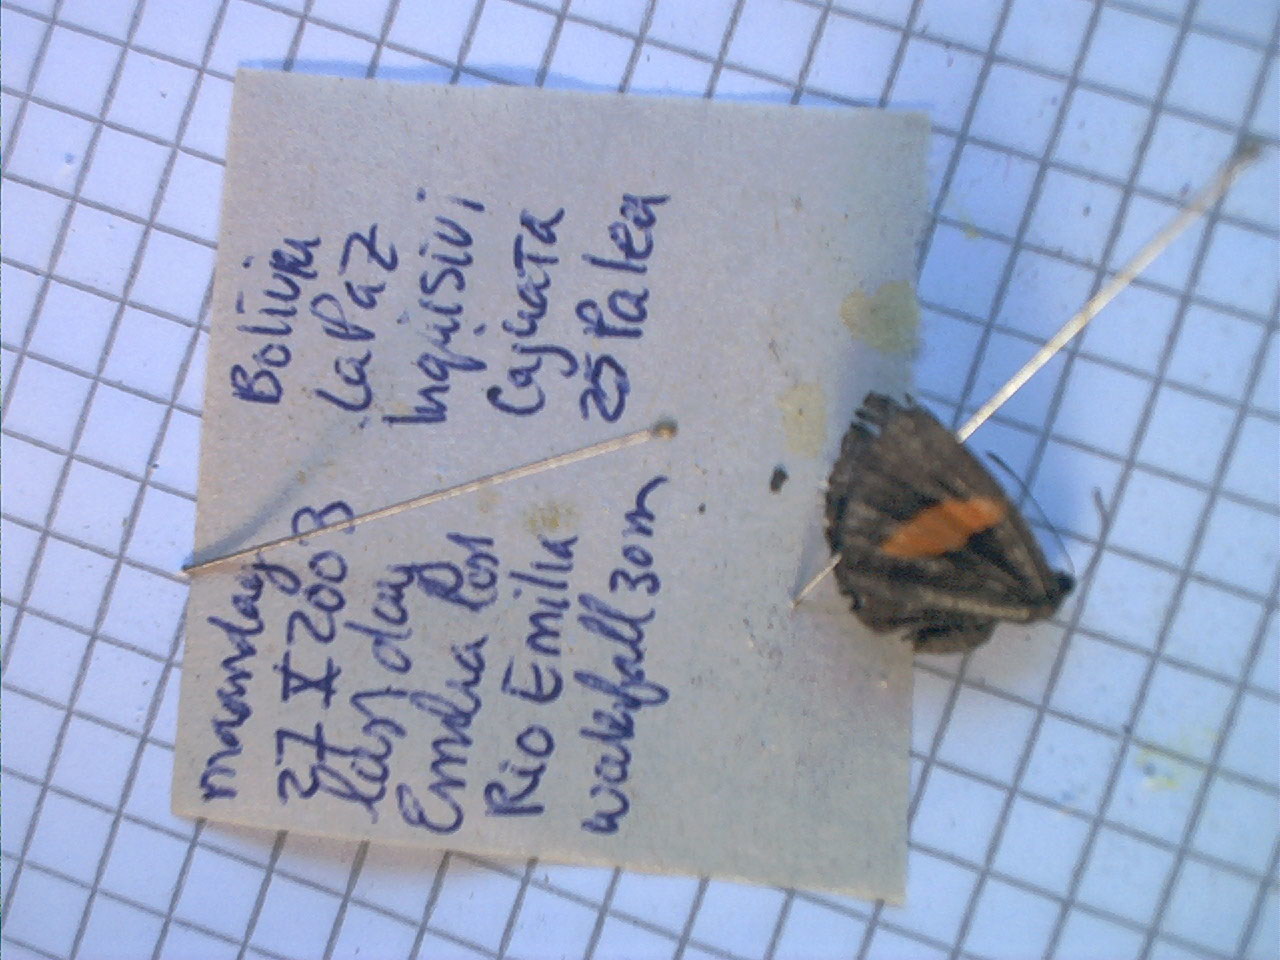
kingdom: Animalia
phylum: Arthropoda
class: Insecta
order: Lepidoptera
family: Riodinidae
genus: Crocozona
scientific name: Crocozona fasciata
